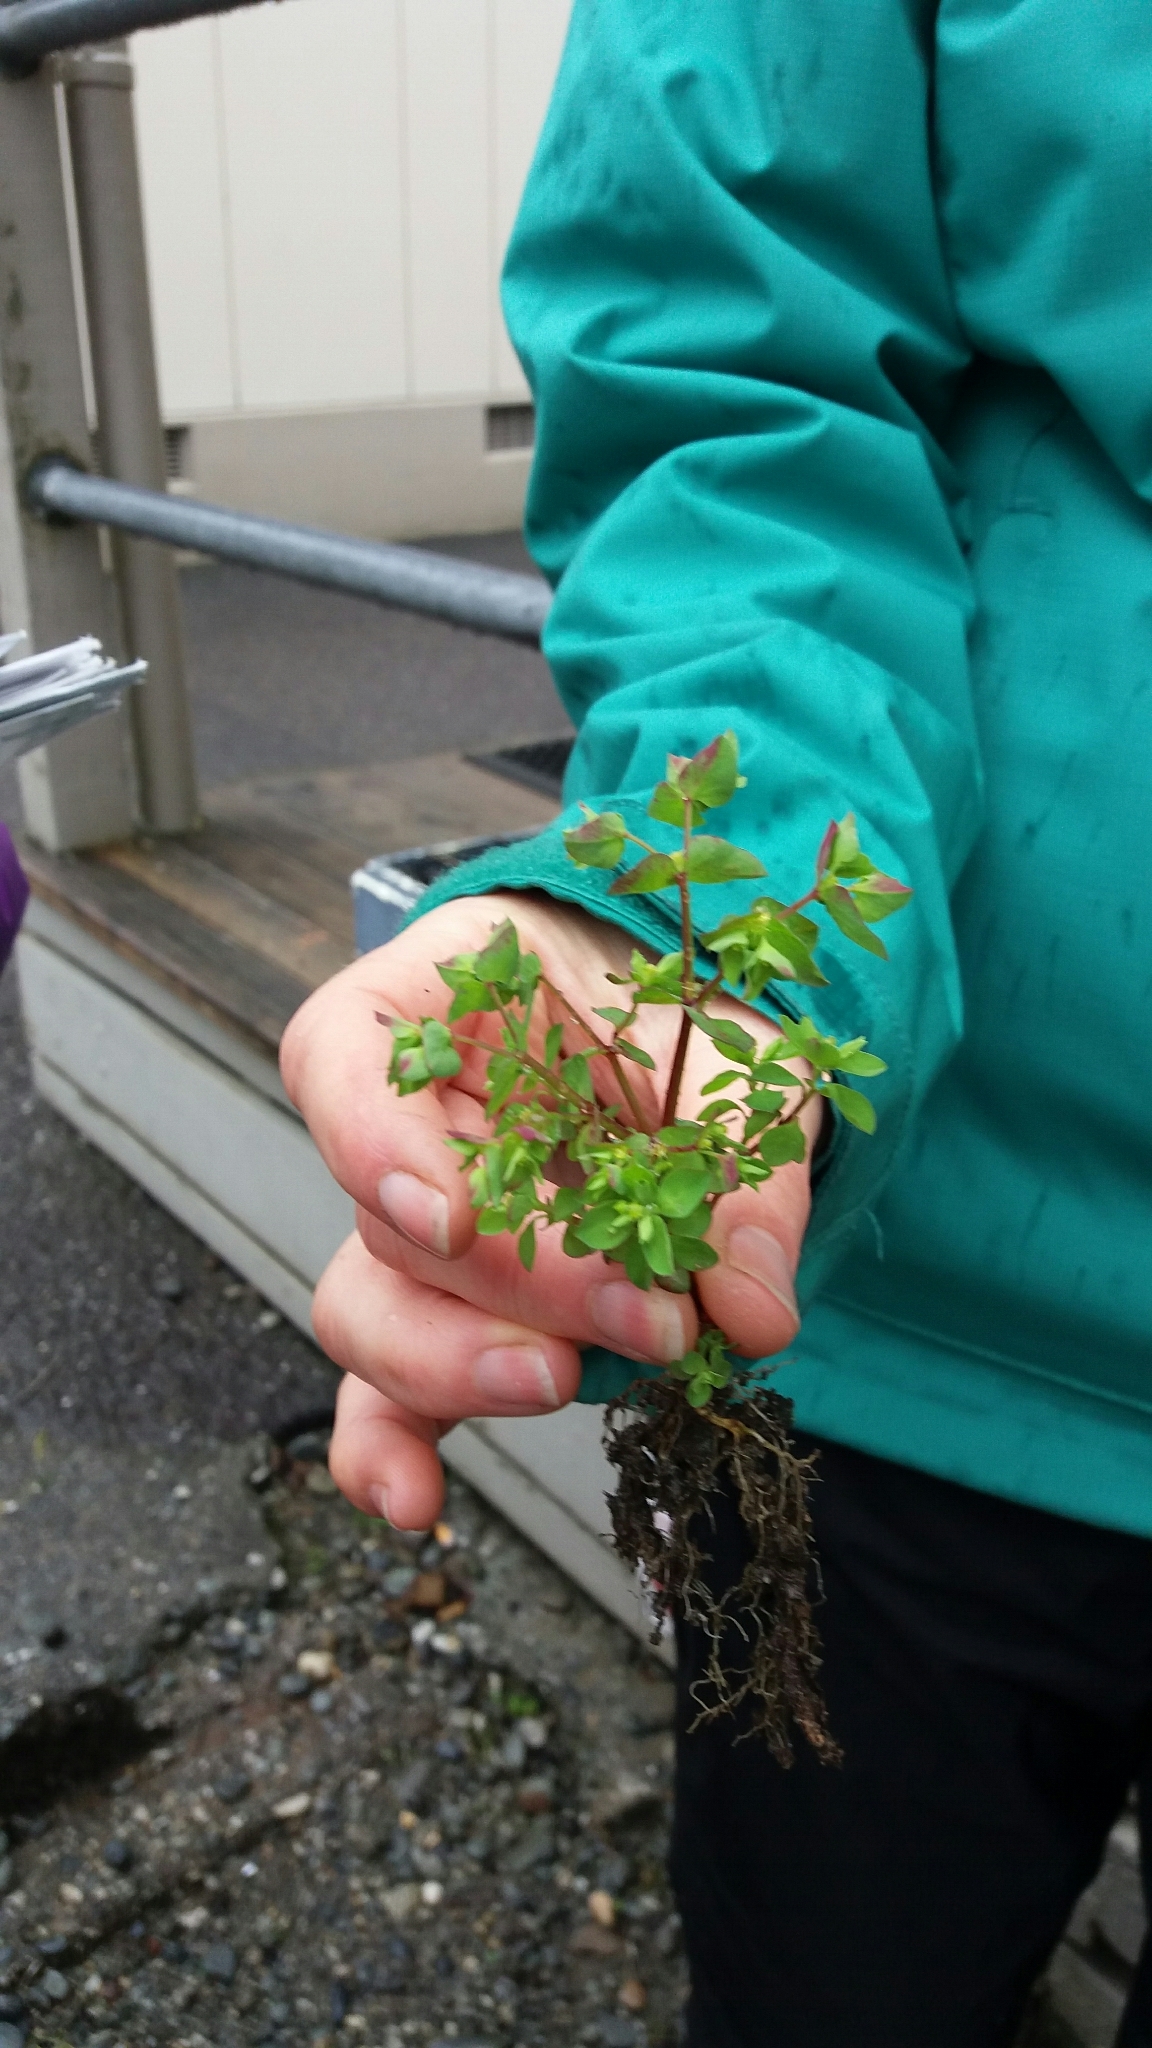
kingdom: Plantae
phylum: Tracheophyta
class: Magnoliopsida
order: Malpighiales
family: Euphorbiaceae
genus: Euphorbia
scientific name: Euphorbia peplus
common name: Petty spurge
